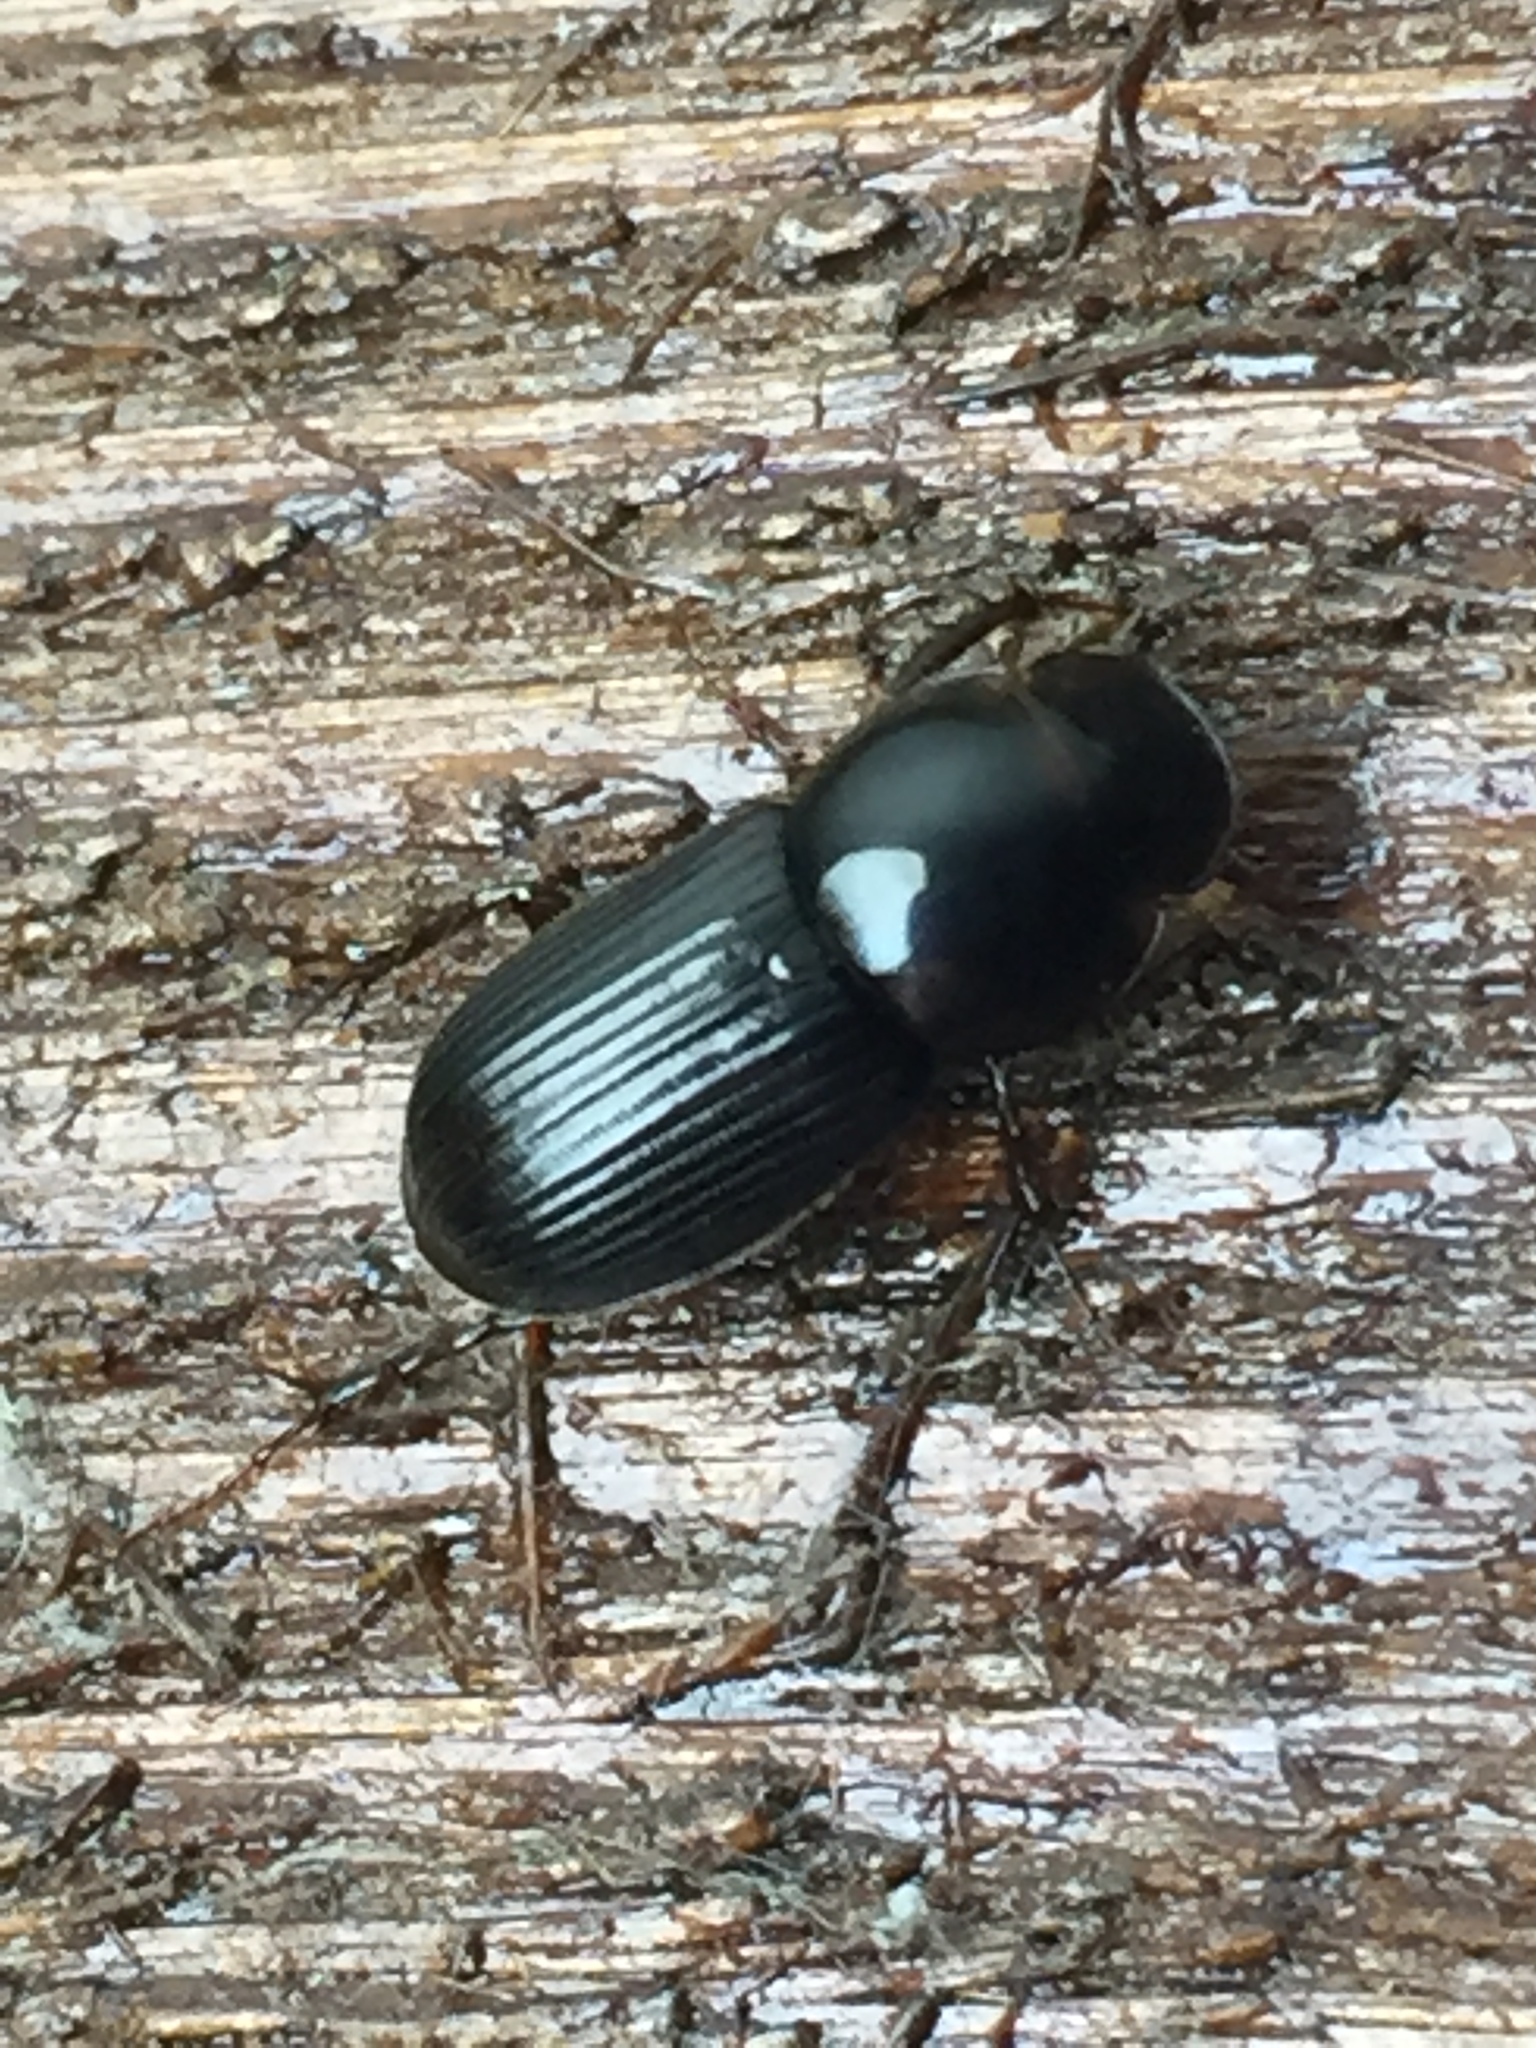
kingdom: Animalia
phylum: Arthropoda
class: Insecta
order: Coleoptera
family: Scarabaeidae
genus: Acrossidius
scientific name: Acrossidius tasmaniae
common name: Black-headed pasture cockchafer
